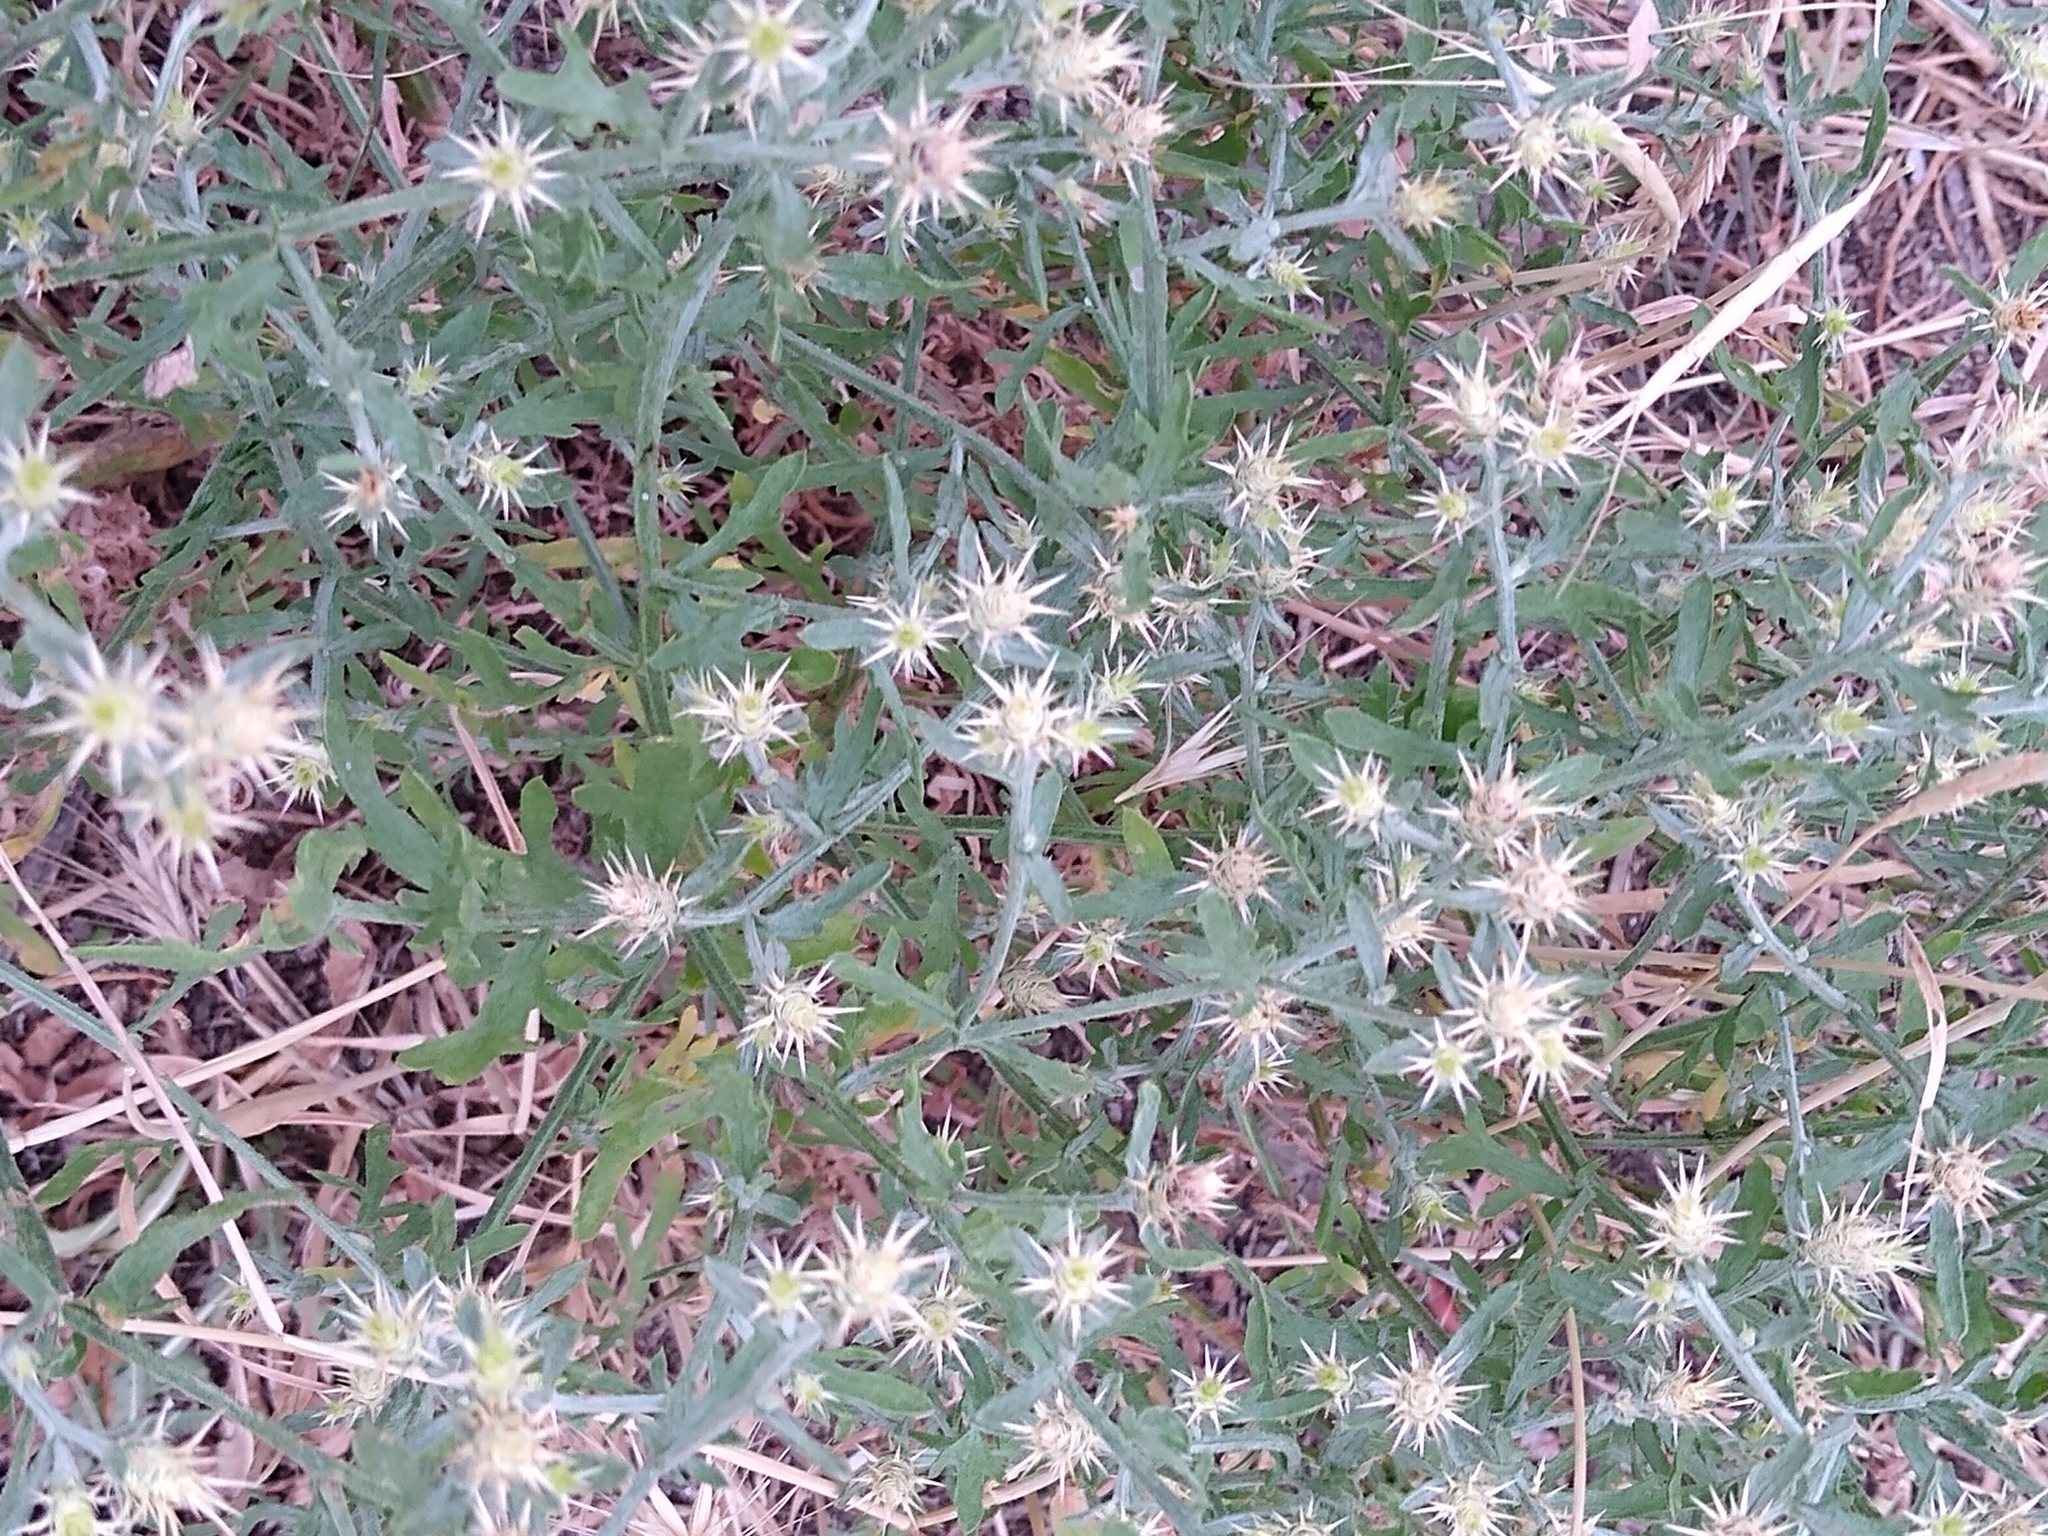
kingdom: Plantae
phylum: Tracheophyta
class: Magnoliopsida
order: Asterales
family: Asteraceae
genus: Centaurea
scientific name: Centaurea diffusa
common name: Diffuse knapweed
